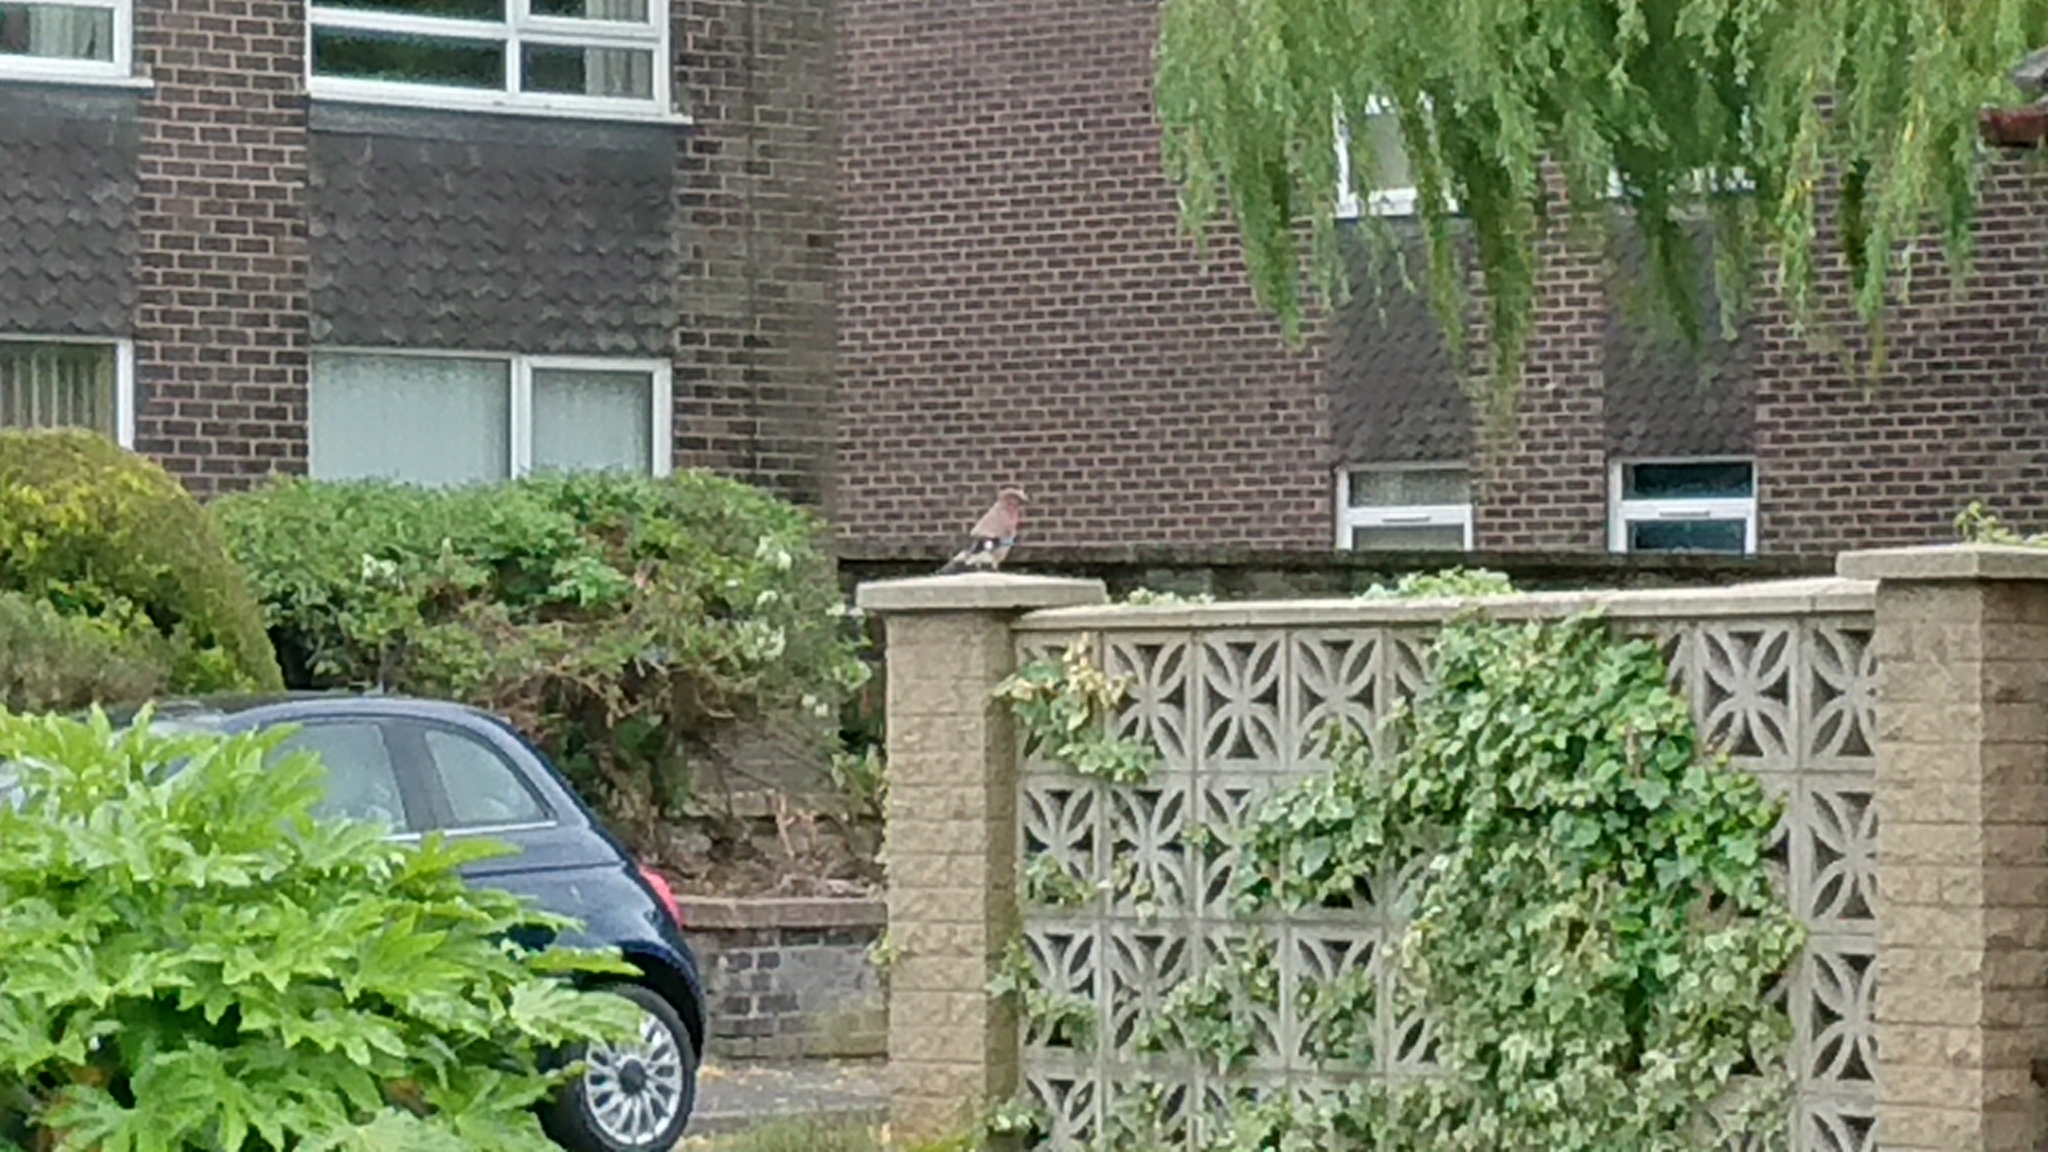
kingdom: Animalia
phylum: Chordata
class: Aves
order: Passeriformes
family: Corvidae
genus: Garrulus
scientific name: Garrulus glandarius
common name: Eurasian jay
